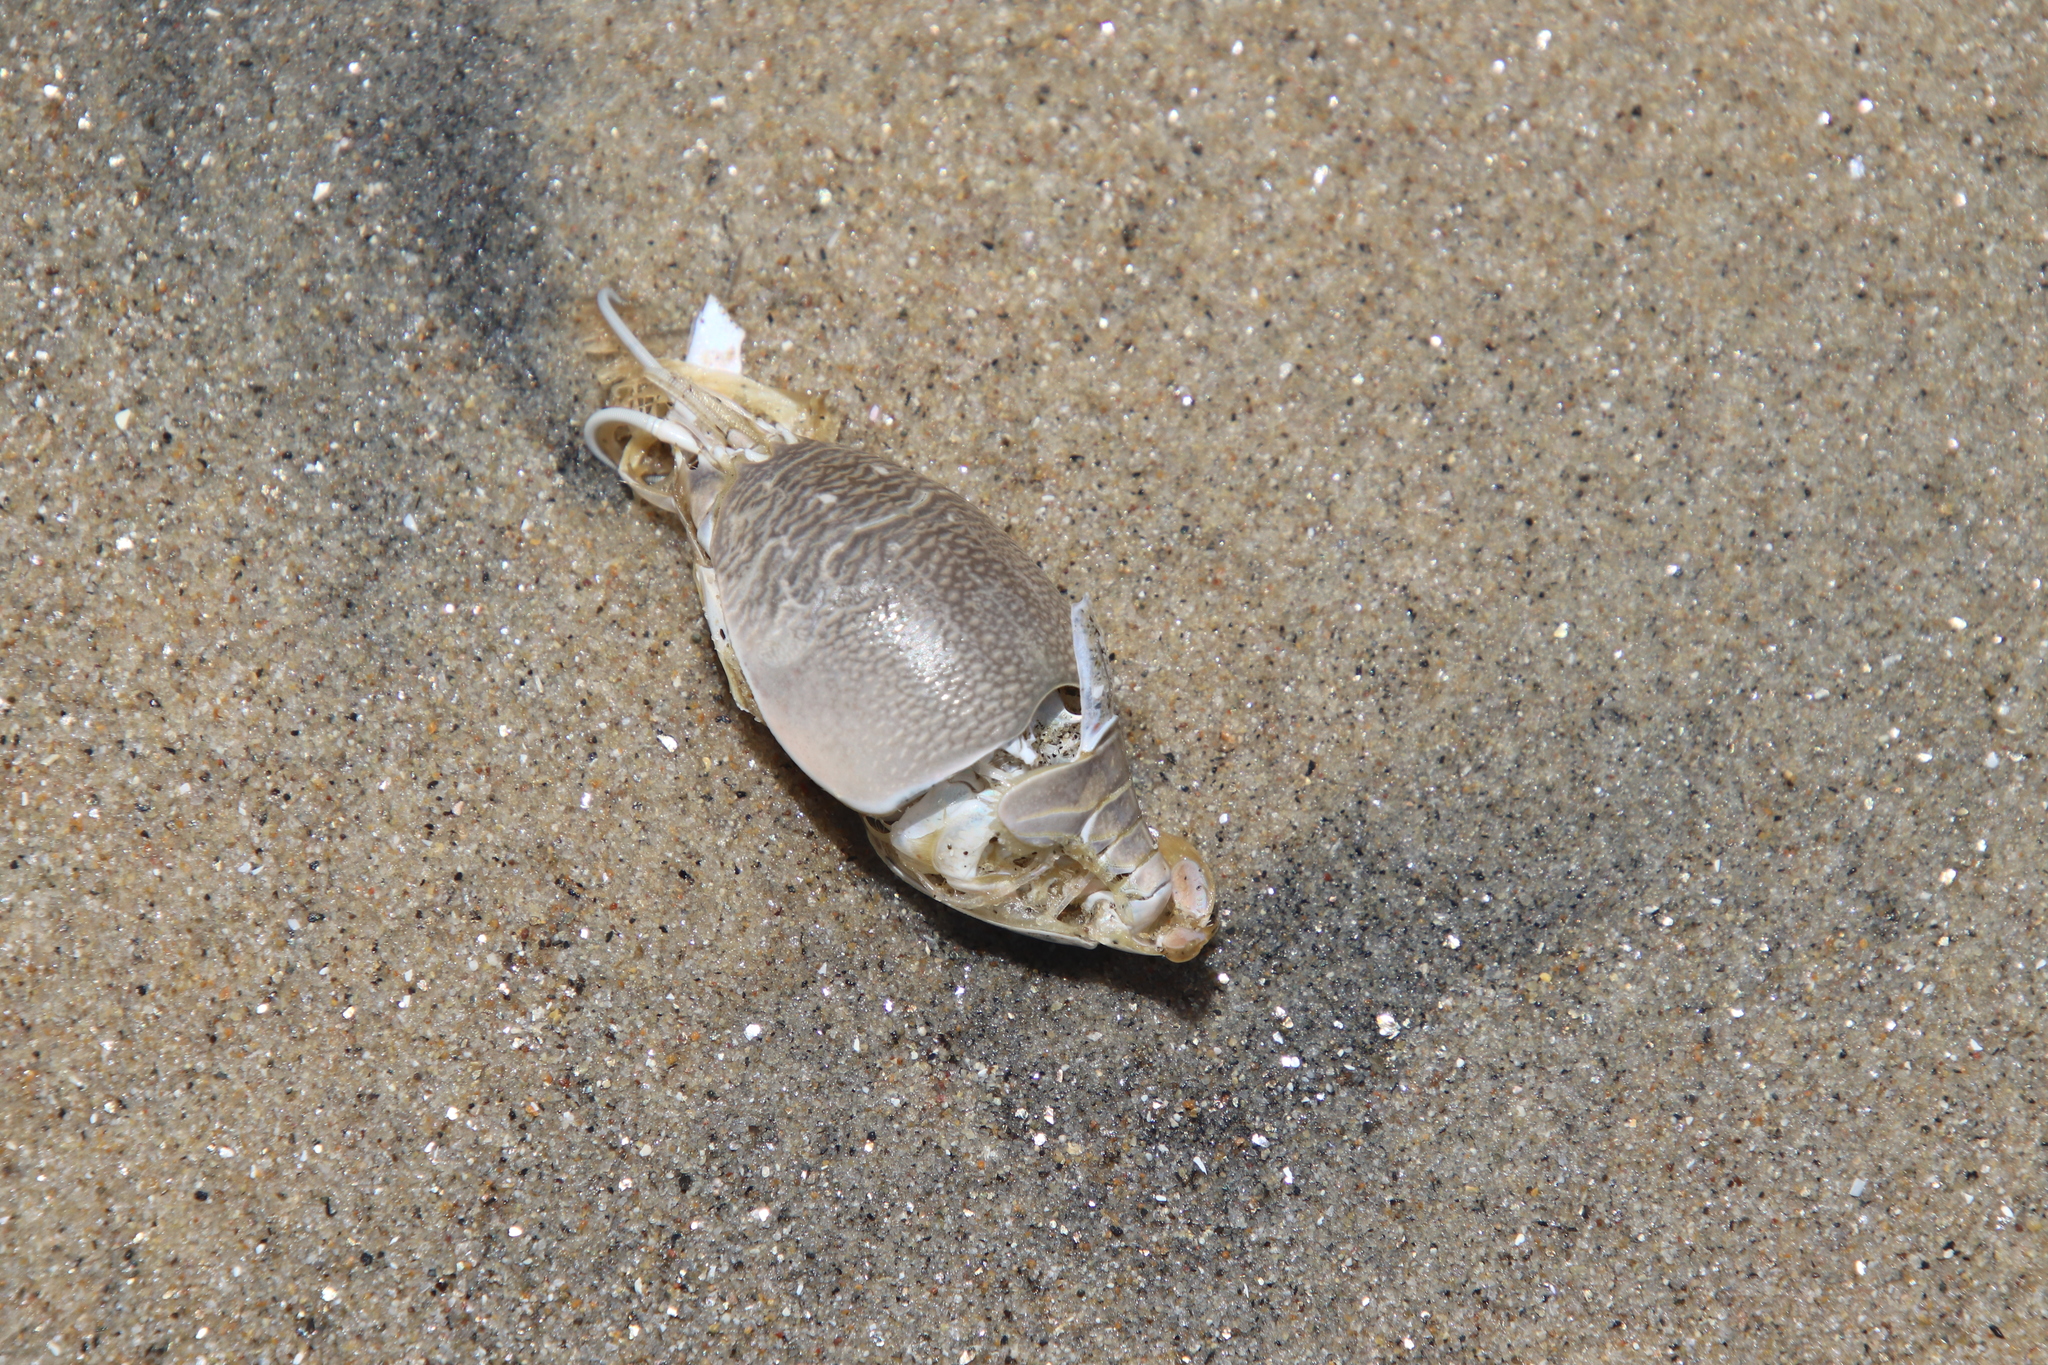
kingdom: Animalia
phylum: Arthropoda
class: Malacostraca
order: Decapoda
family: Hippidae
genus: Emerita
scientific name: Emerita analoga
